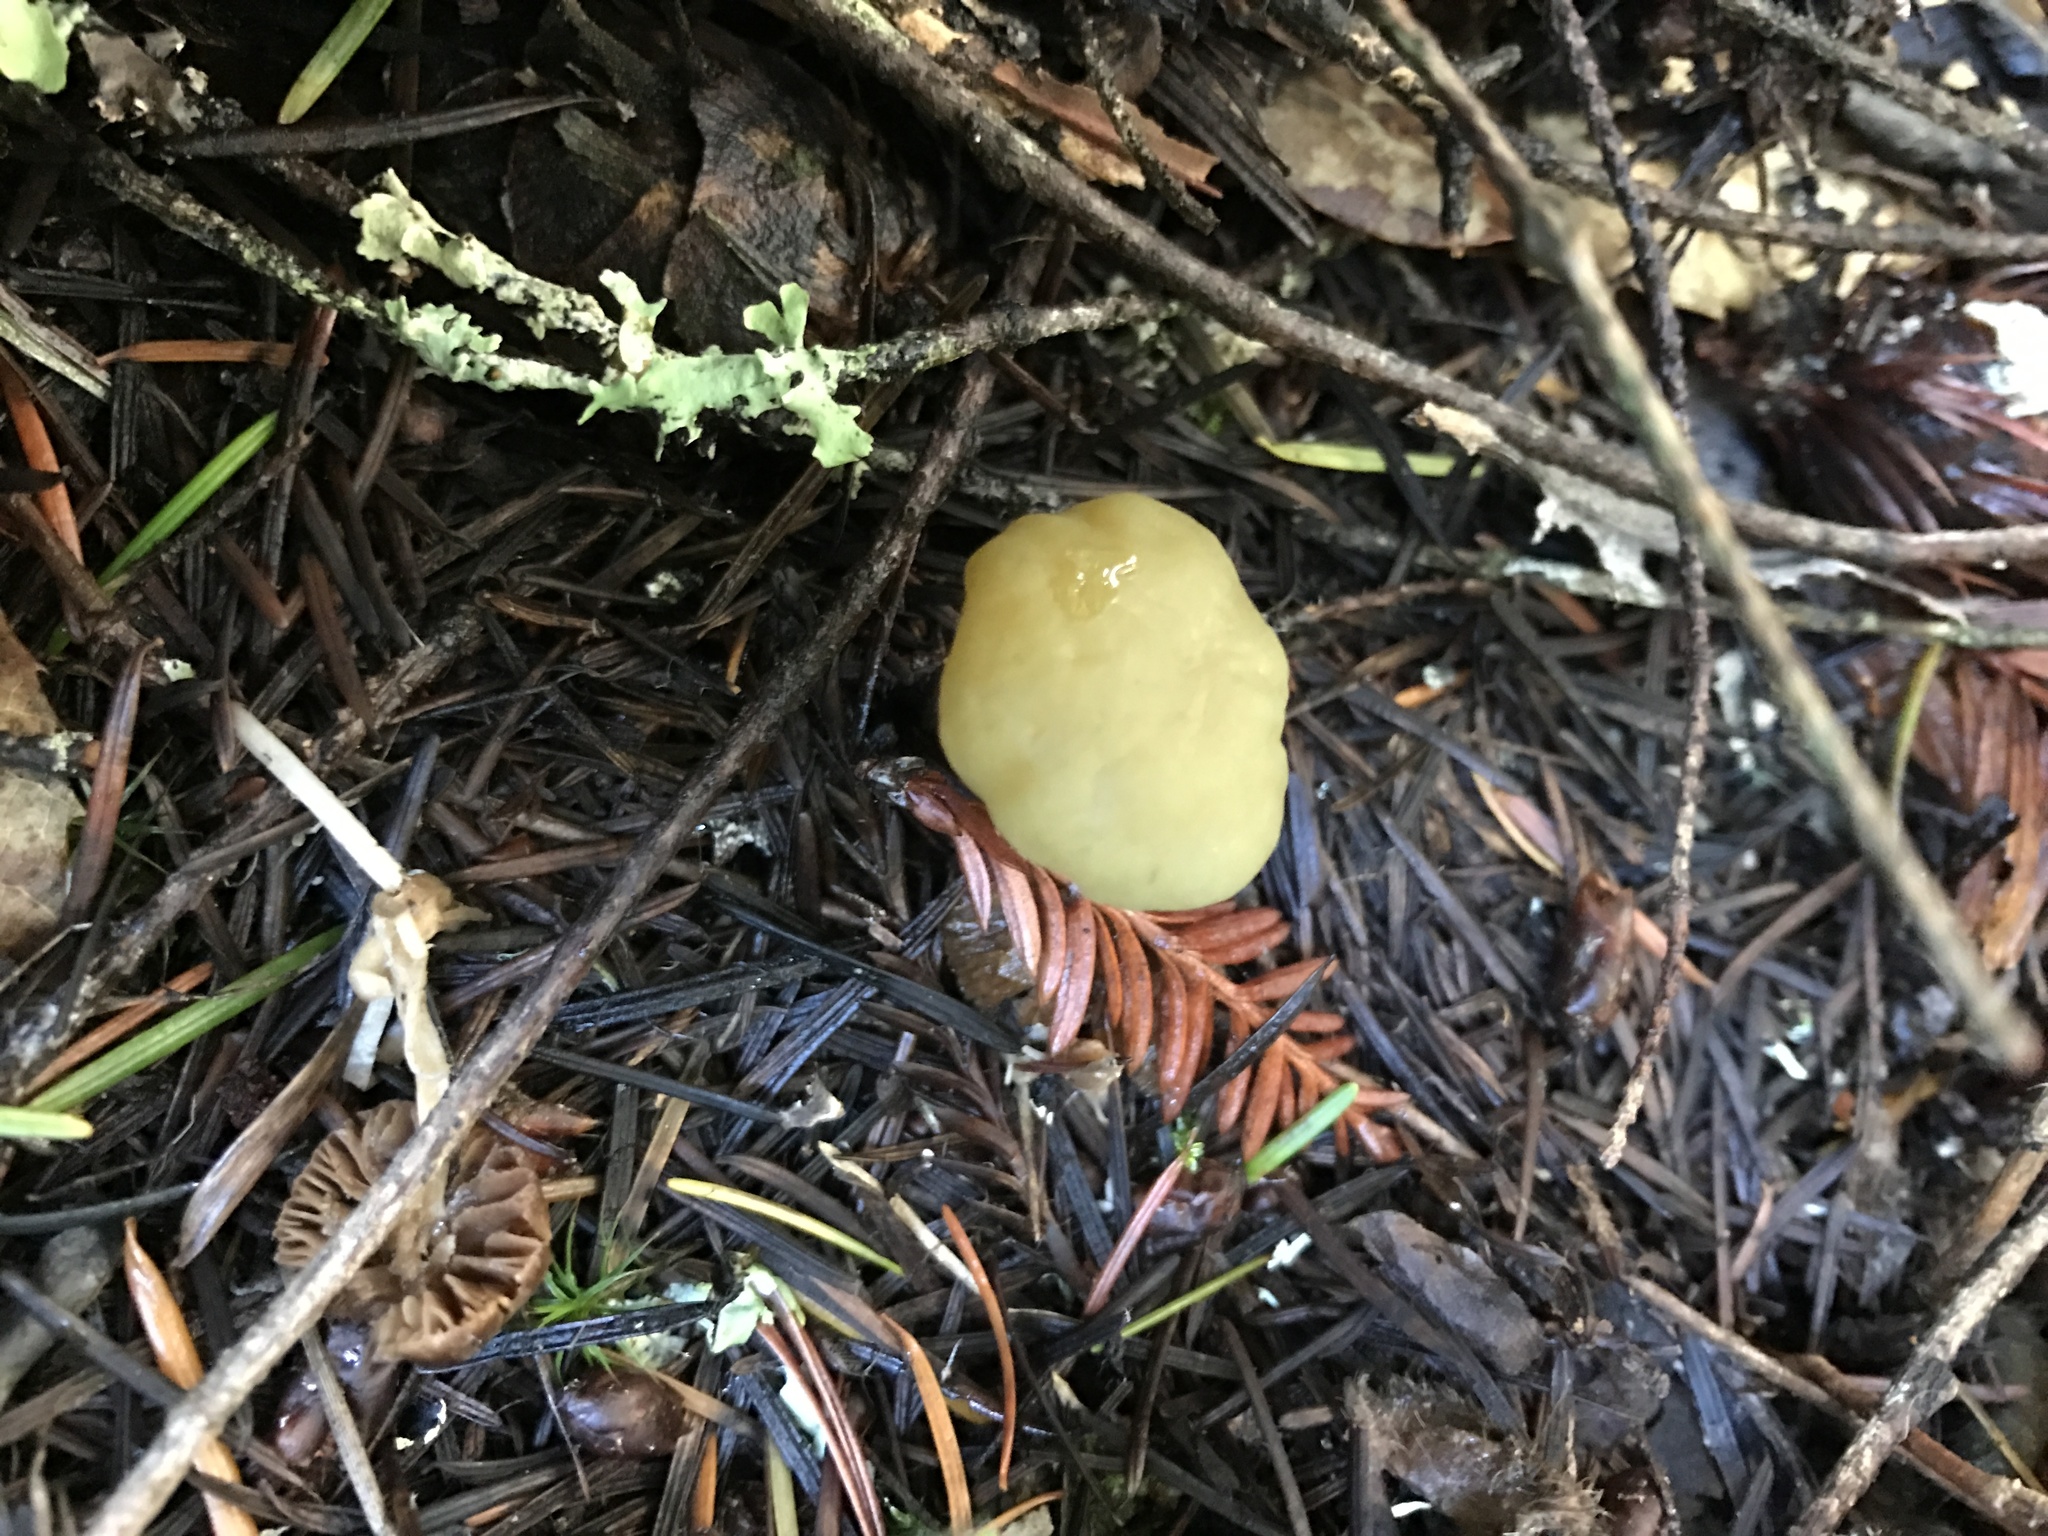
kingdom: Fungi
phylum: Ascomycota
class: Leotiomycetes
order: Leotiales
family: Leotiaceae
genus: Leotia
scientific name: Leotia lubrica
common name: Jellybaby
